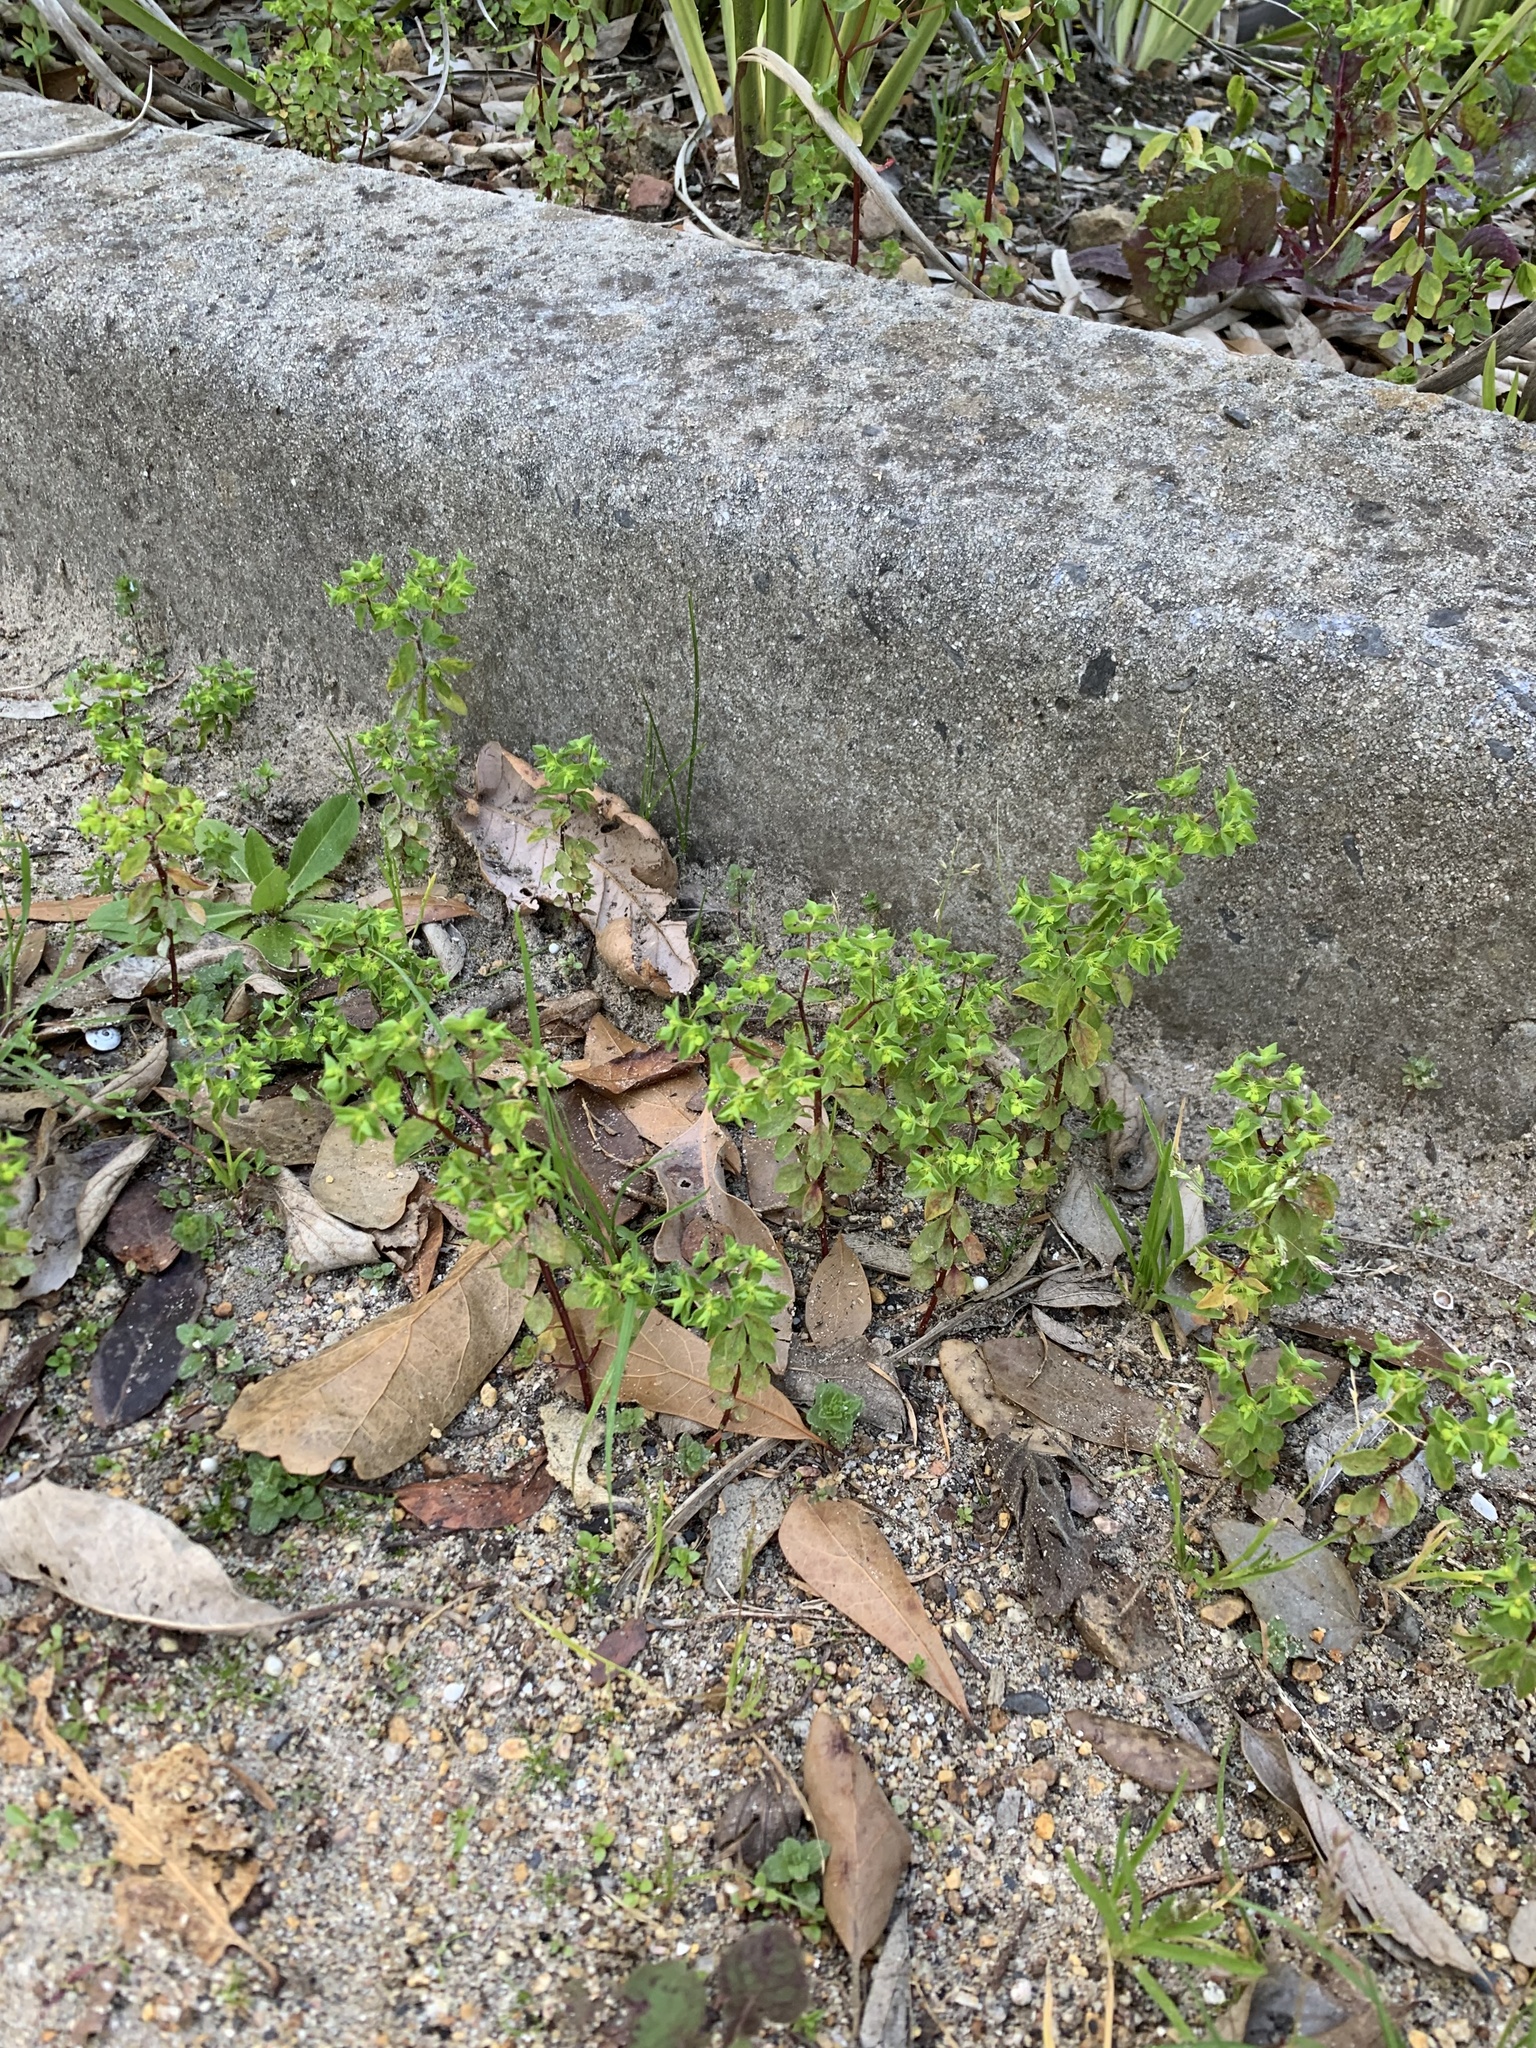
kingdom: Plantae
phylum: Tracheophyta
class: Magnoliopsida
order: Malpighiales
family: Euphorbiaceae
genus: Euphorbia
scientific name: Euphorbia peplus
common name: Petty spurge
